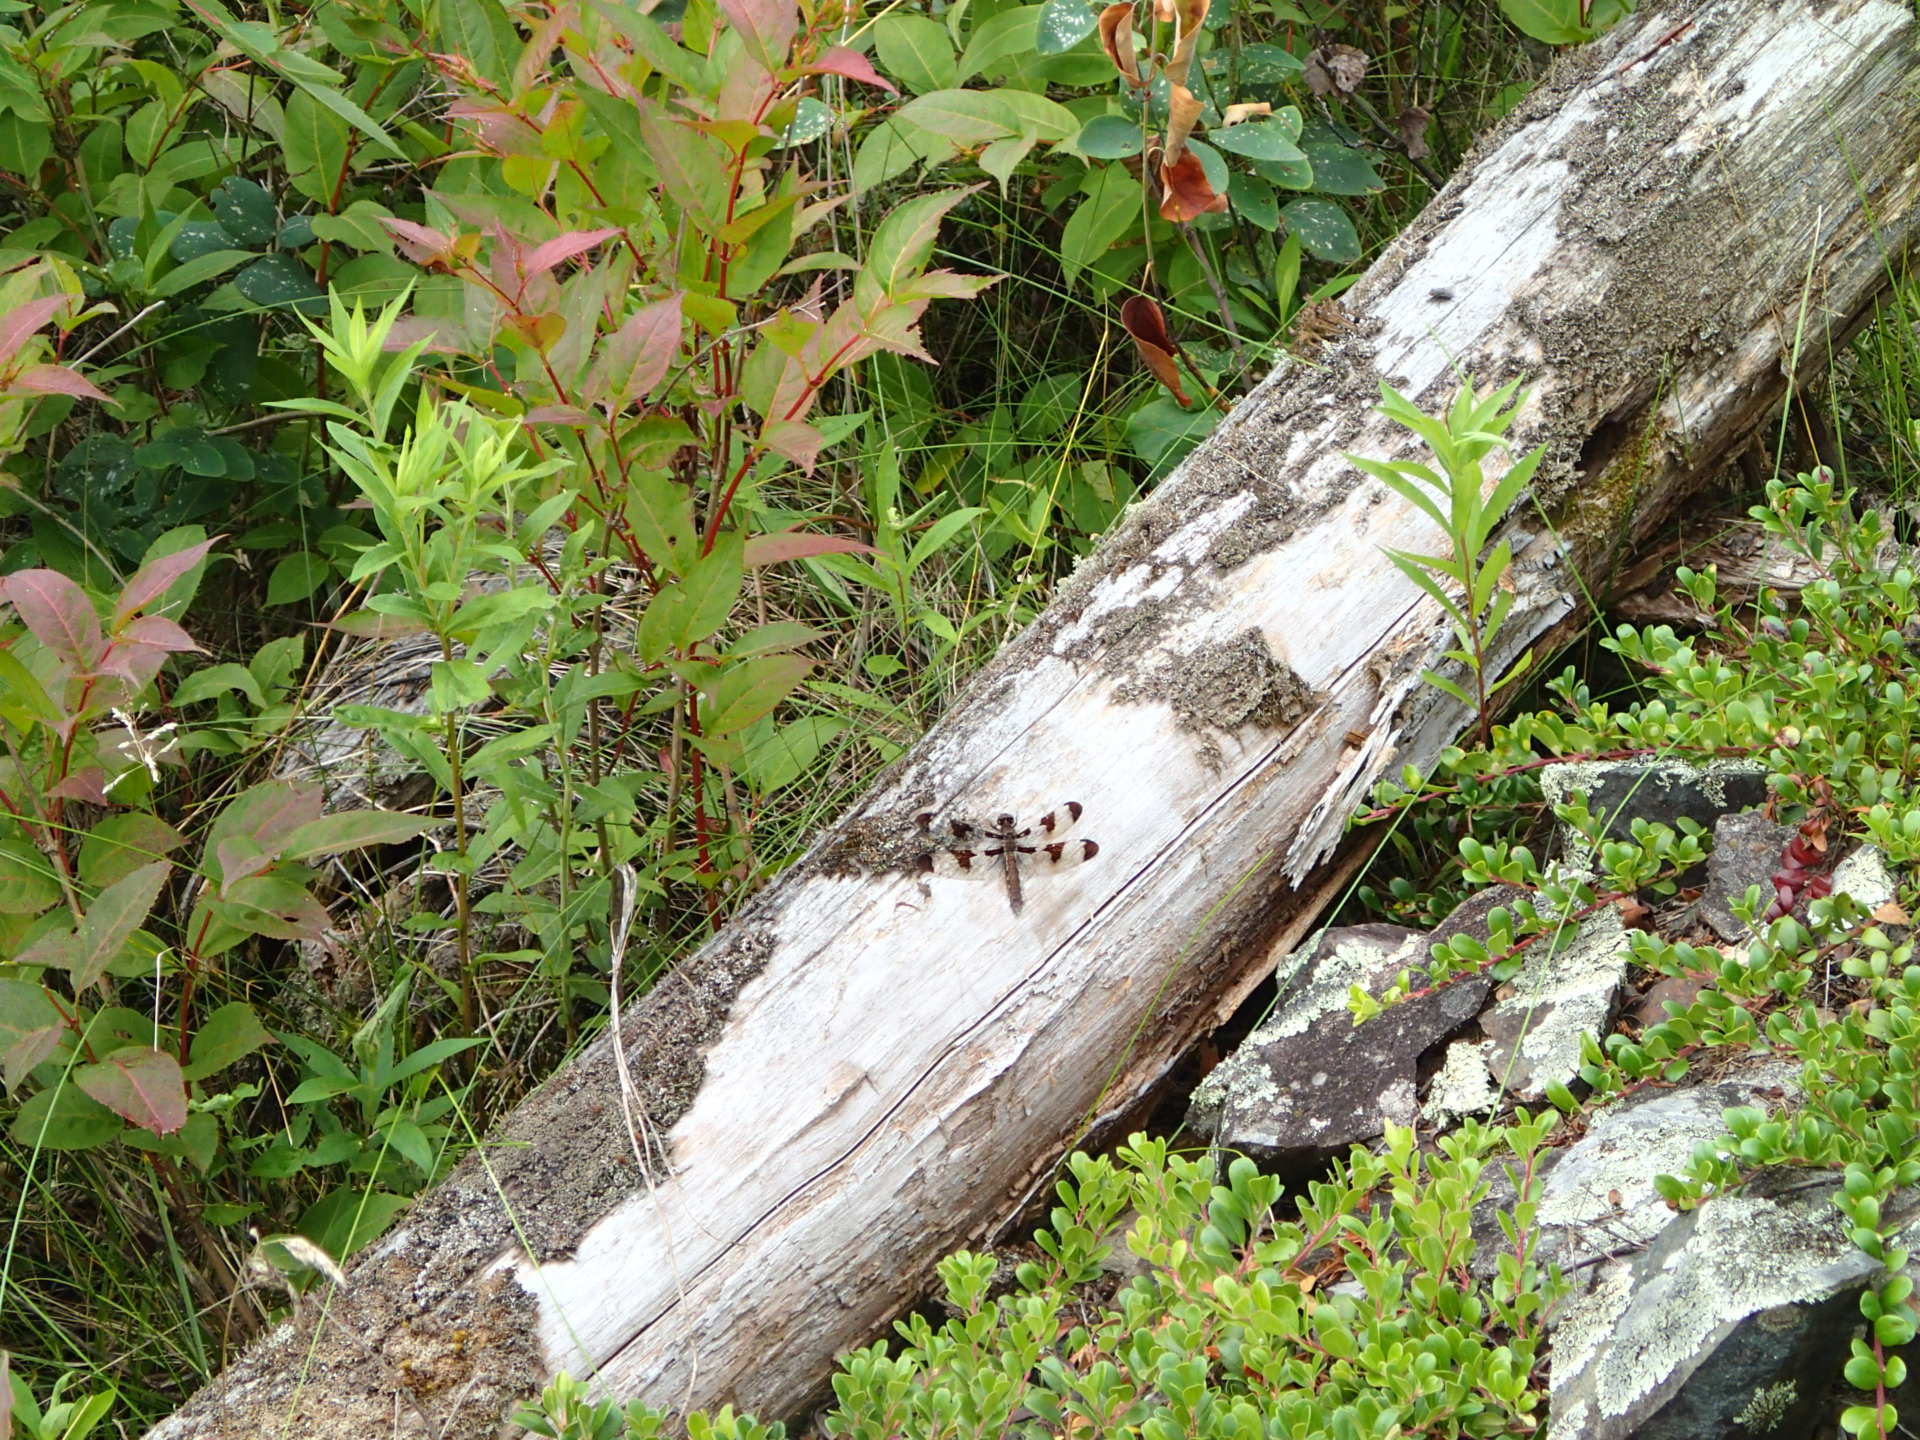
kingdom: Animalia
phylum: Arthropoda
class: Insecta
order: Odonata
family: Libellulidae
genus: Plathemis
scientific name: Plathemis lydia
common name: Common whitetail
